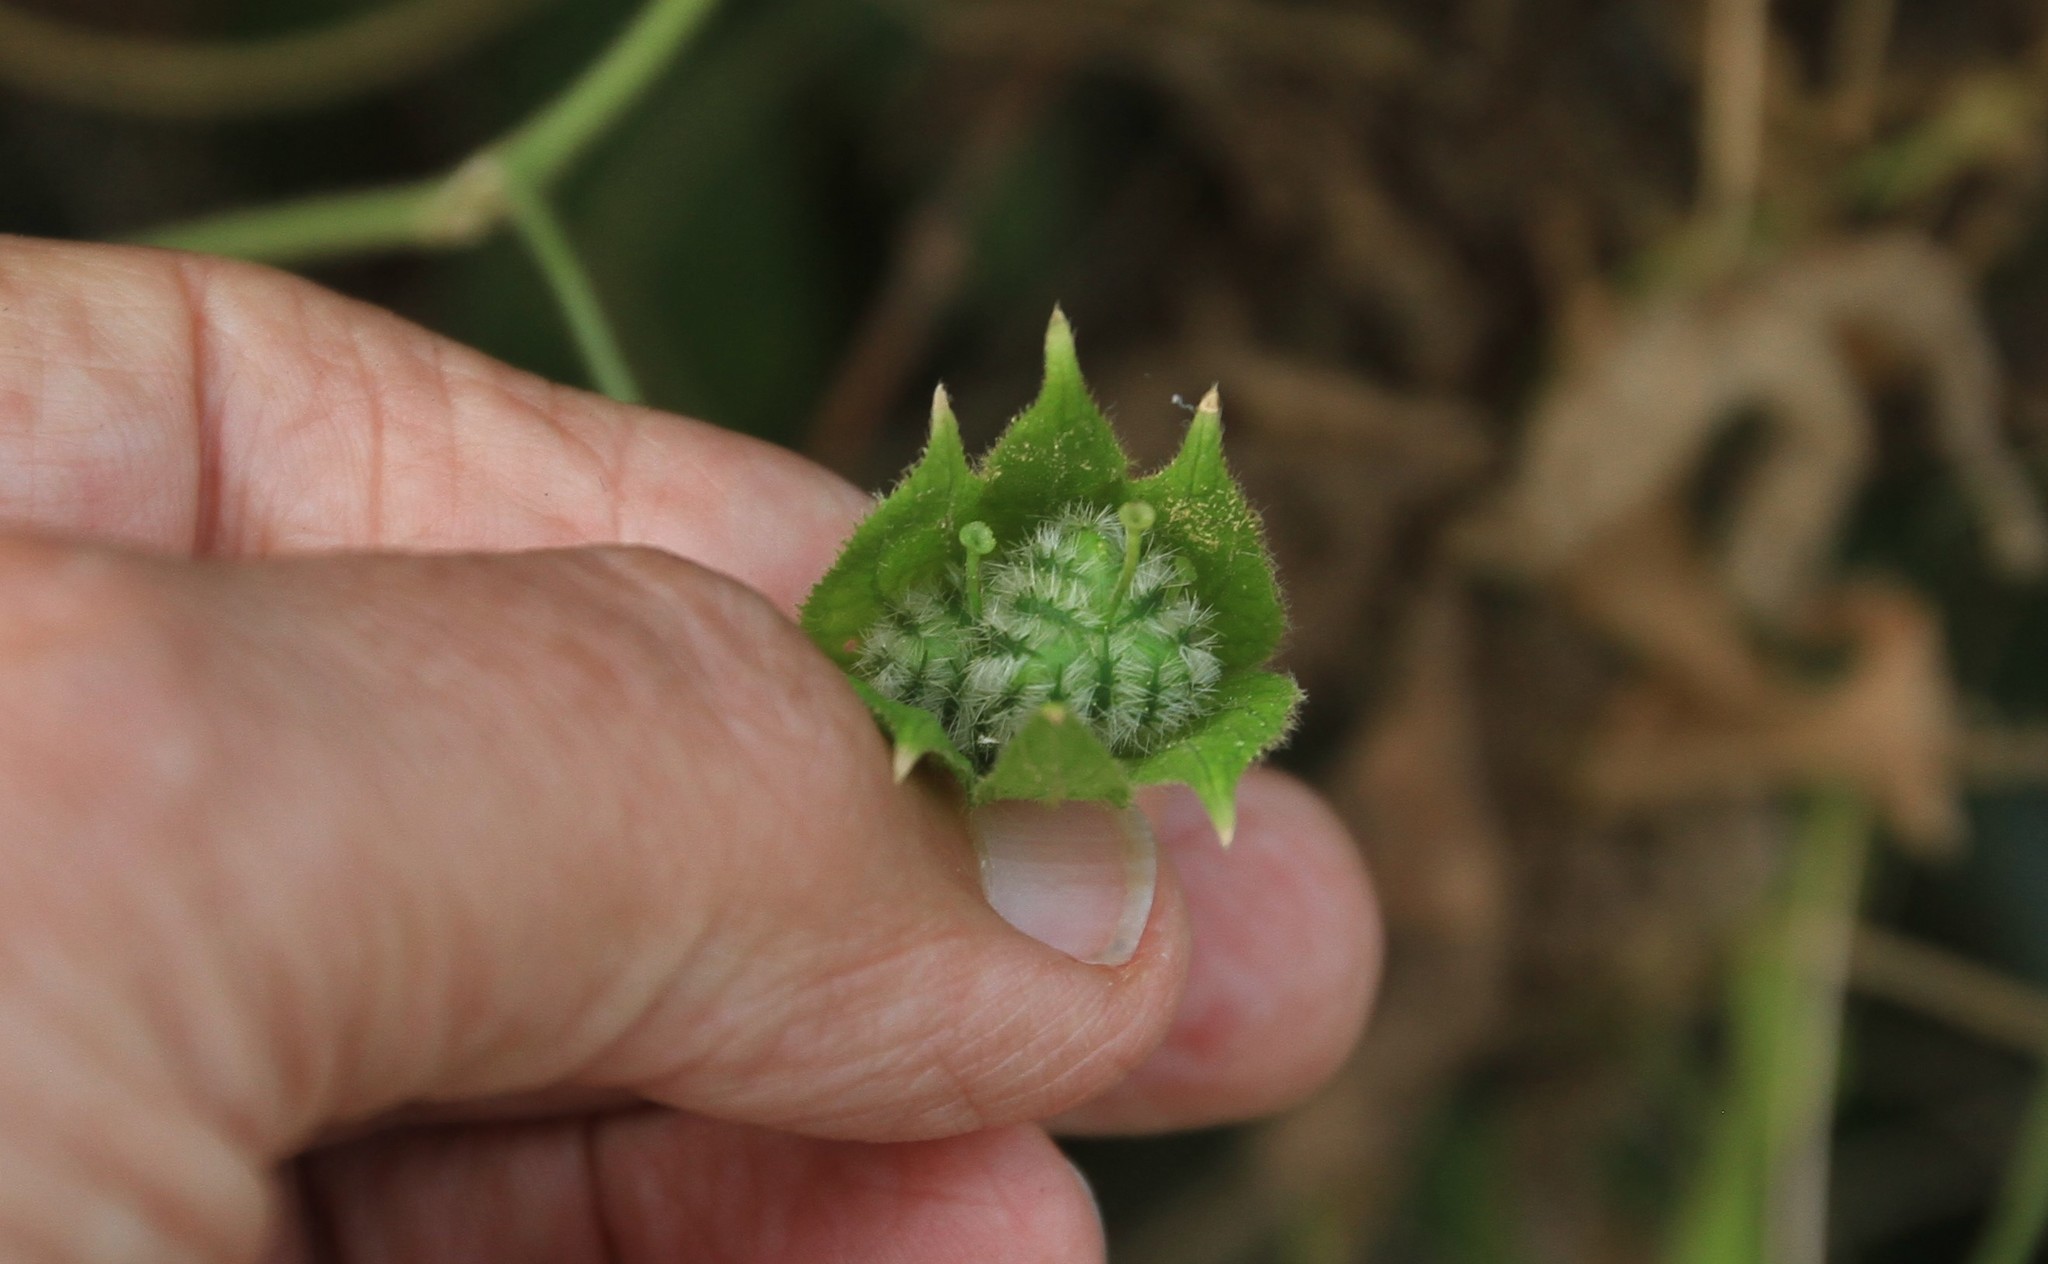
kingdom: Plantae
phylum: Tracheophyta
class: Magnoliopsida
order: Malpighiales
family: Euphorbiaceae
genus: Dalechampia
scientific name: Dalechampia scandens
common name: Spurgecreeper
